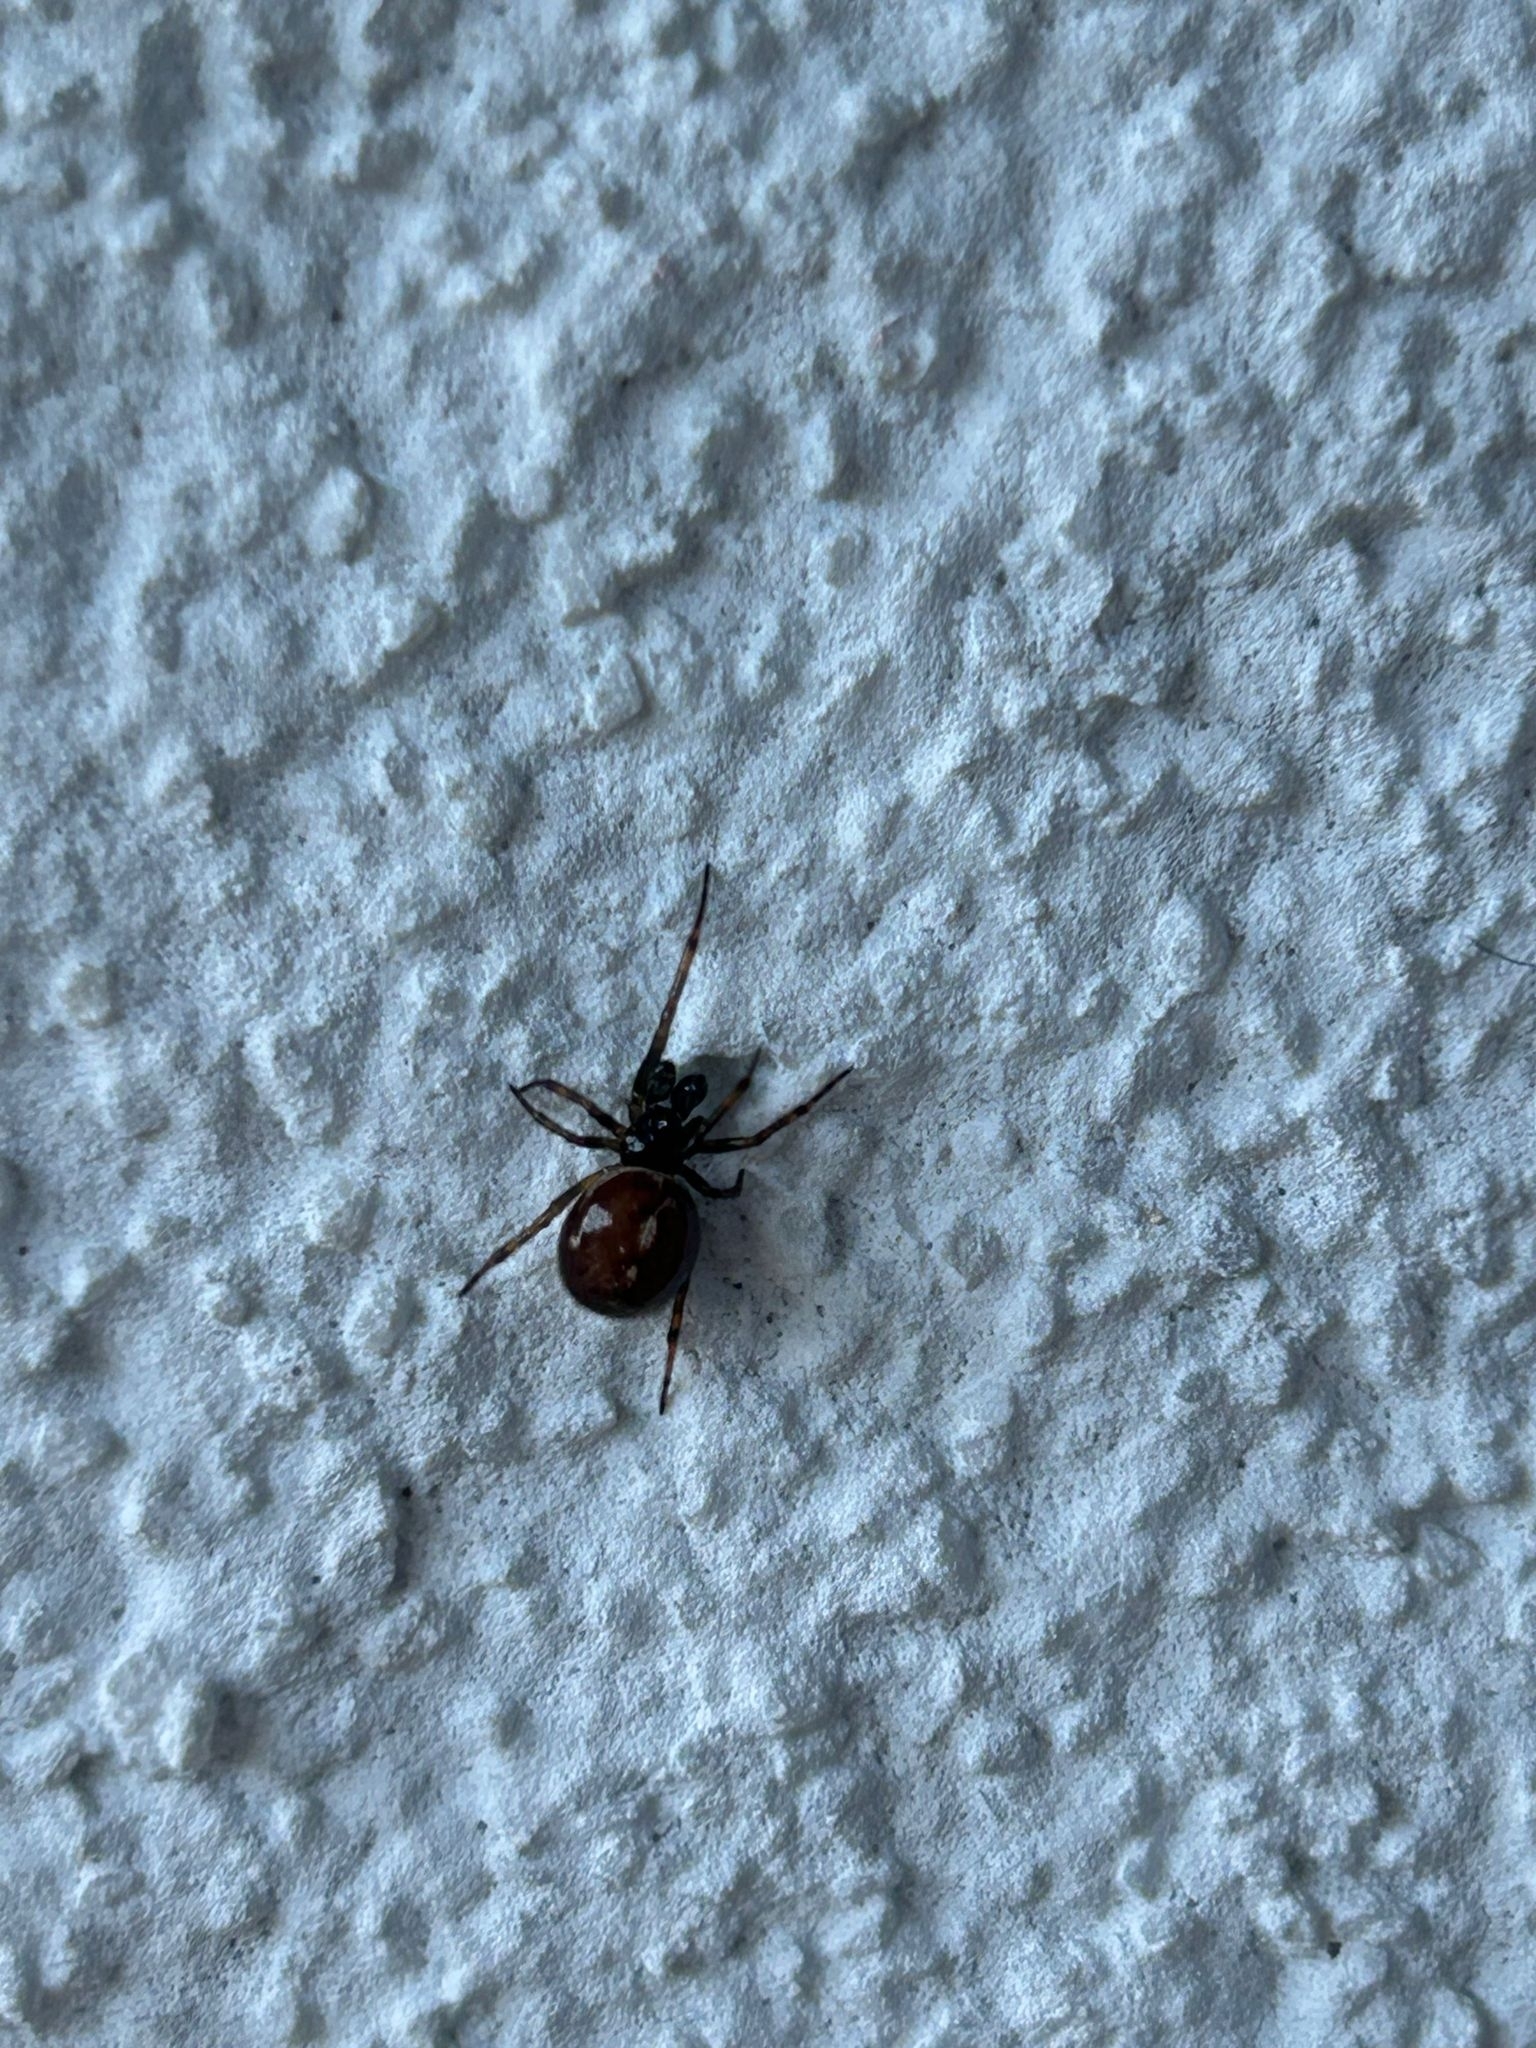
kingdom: Animalia
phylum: Arthropoda
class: Arachnida
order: Araneae
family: Theridiidae
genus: Steatoda
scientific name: Steatoda bipunctata
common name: False widow
